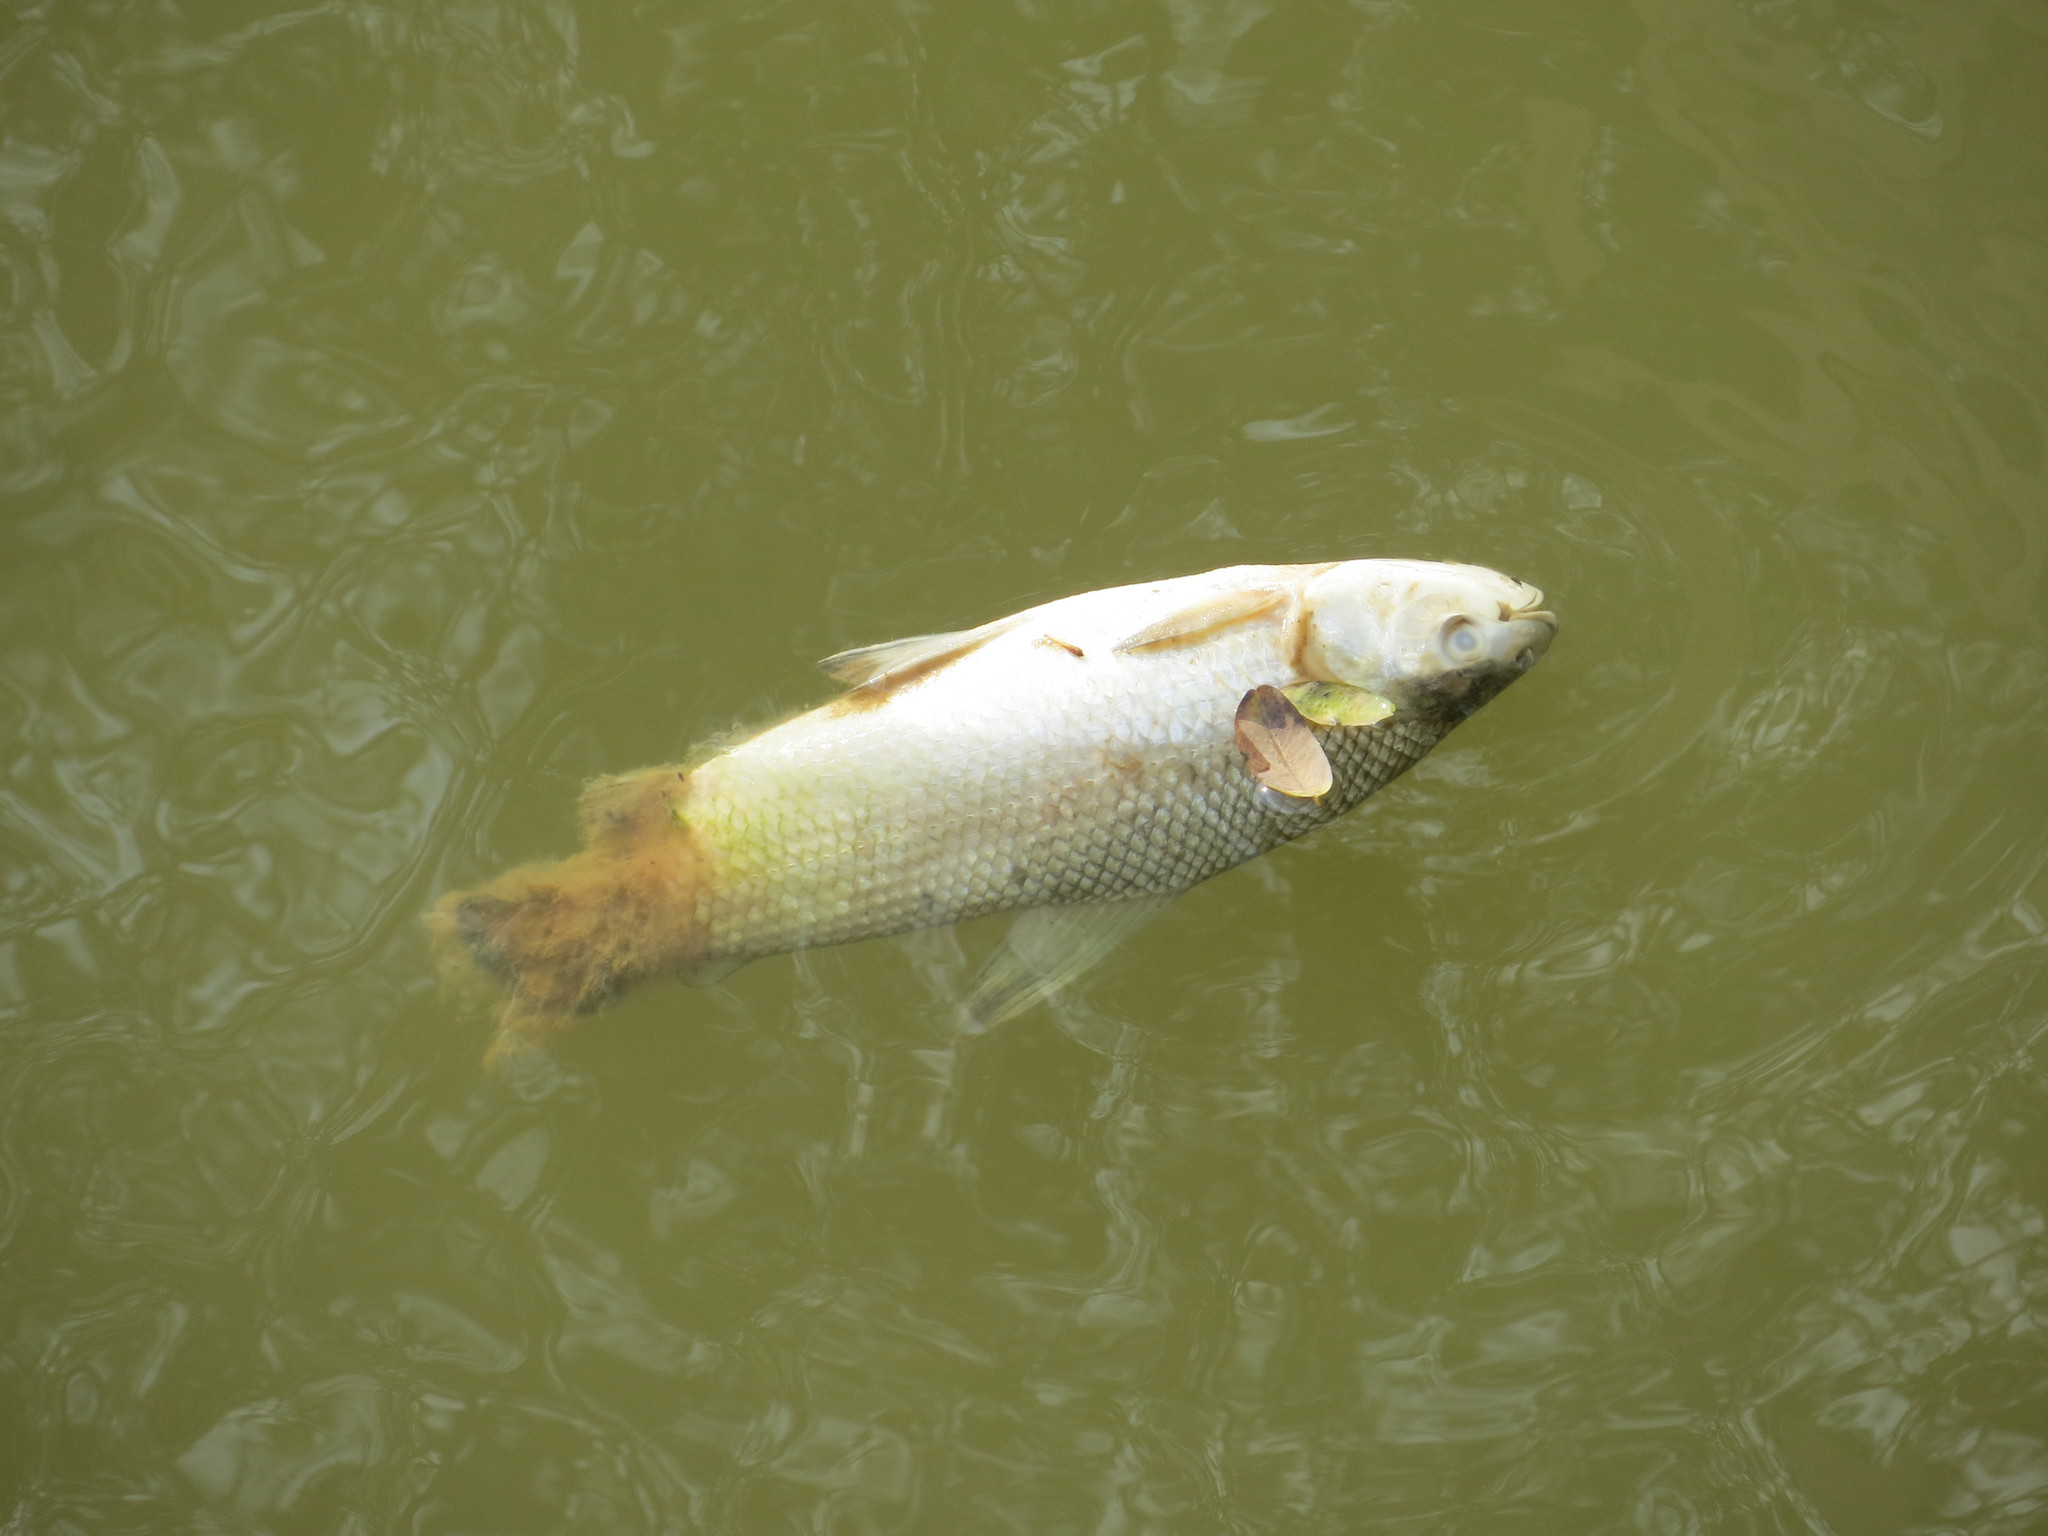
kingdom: Animalia
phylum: Chordata
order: Characiformes
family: Prochilodontidae
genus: Prochilodus
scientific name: Prochilodus lineatus
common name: Curimbata
